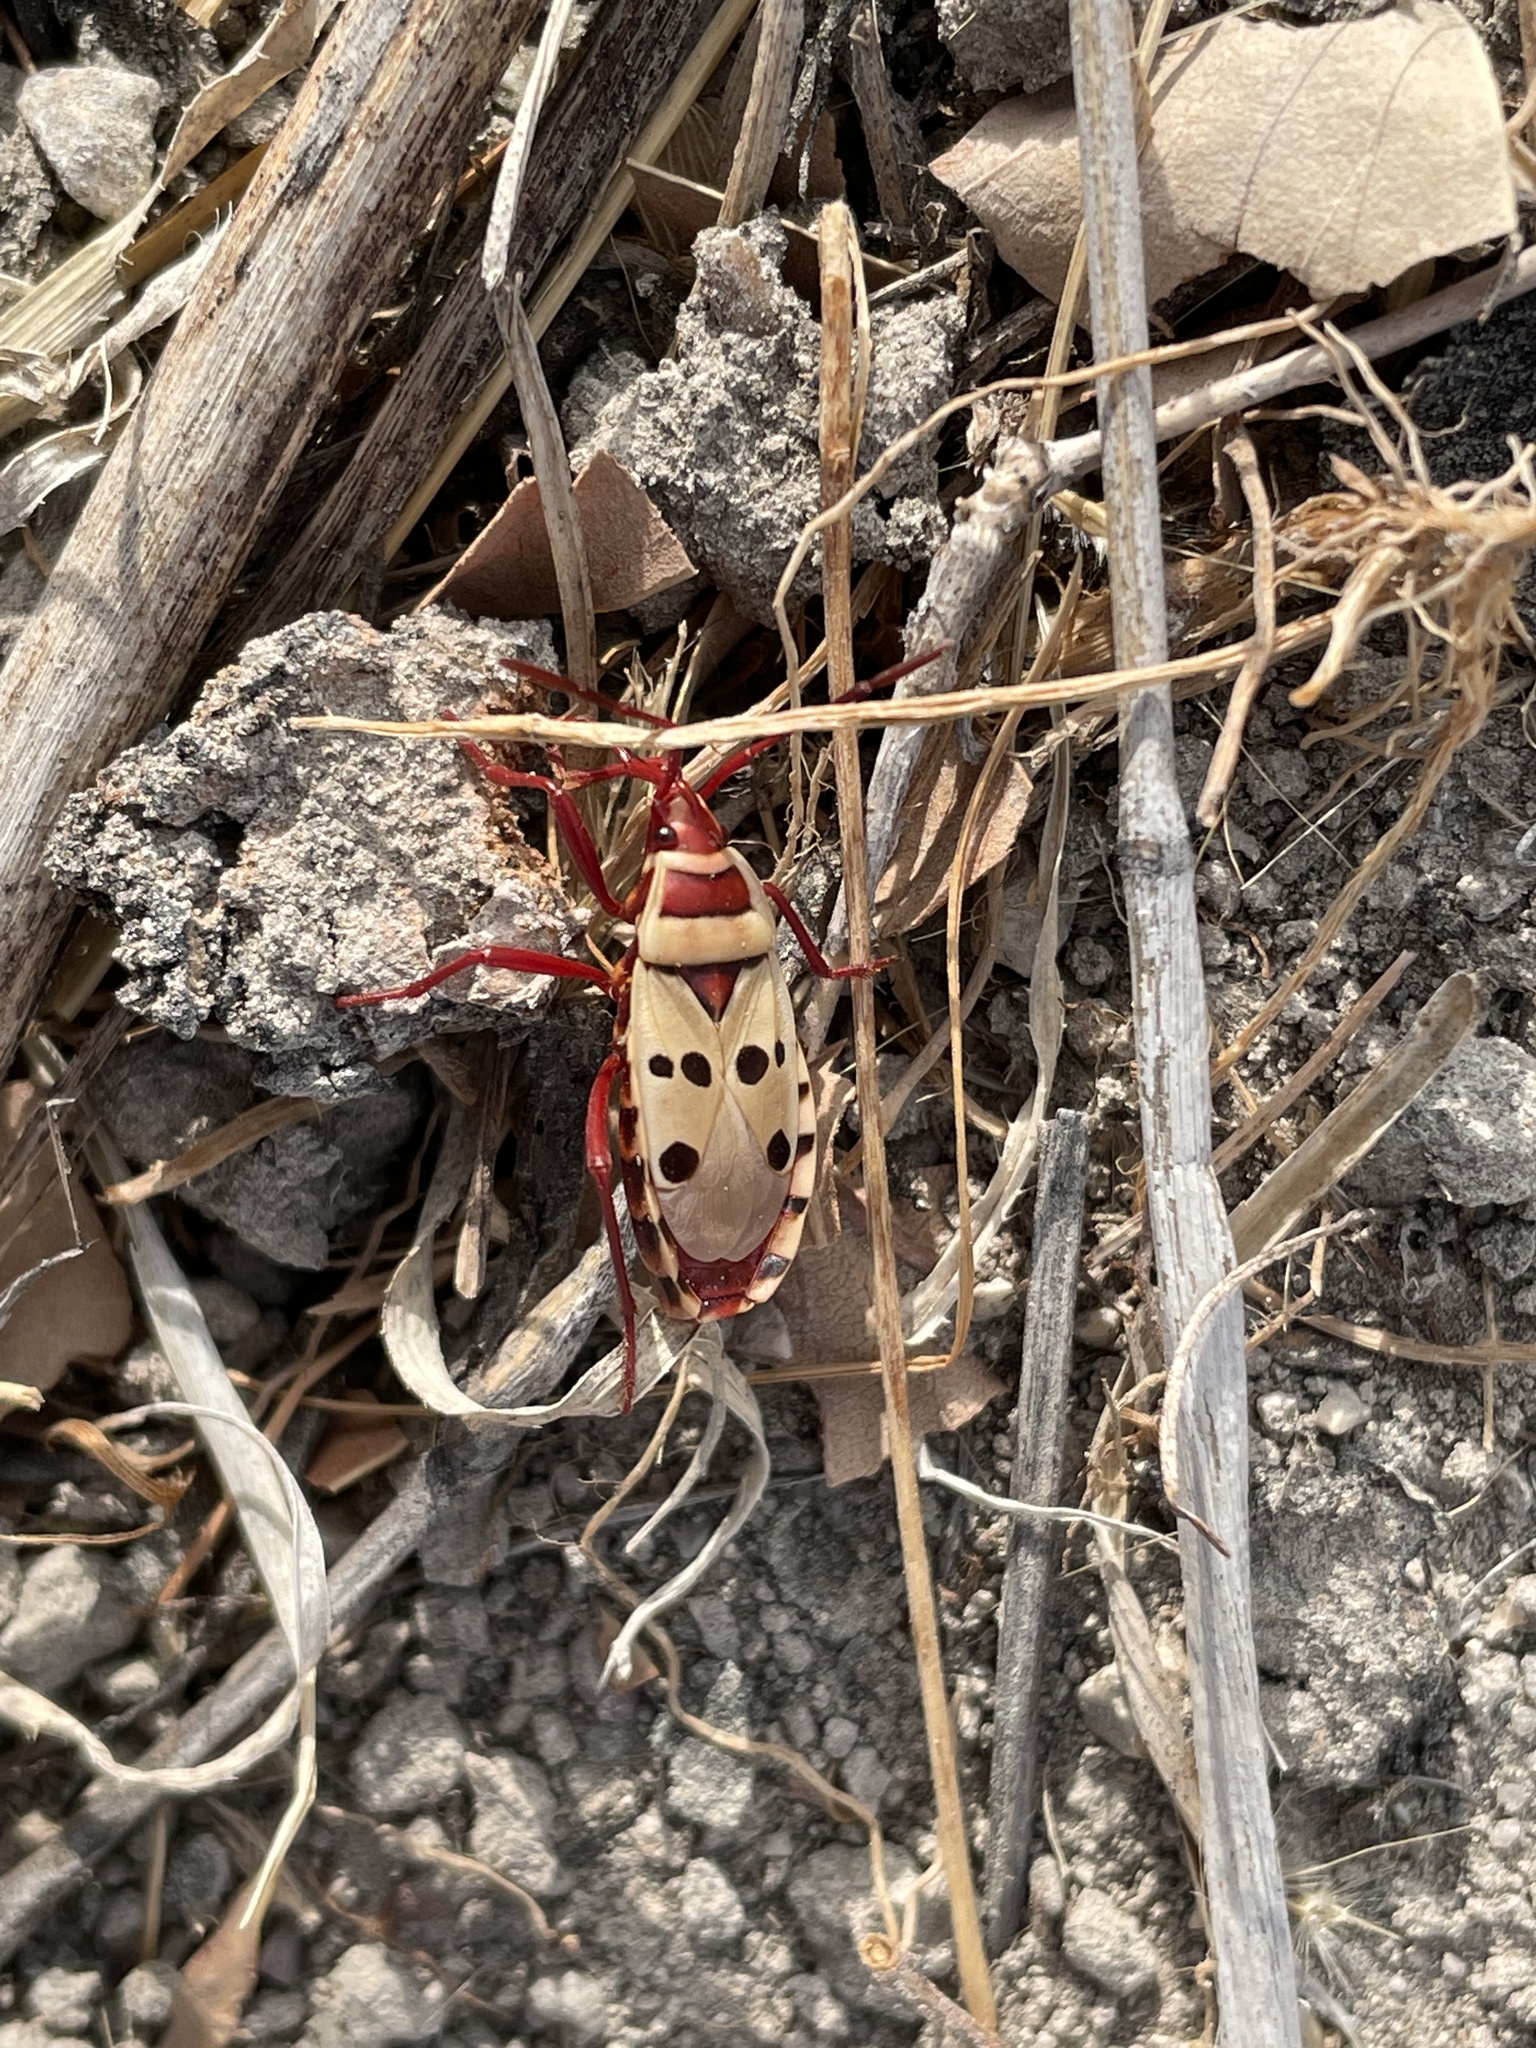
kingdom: Animalia
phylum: Arthropoda
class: Insecta
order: Hemiptera
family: Pyrrhocoridae
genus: Probergrothius
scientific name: Probergrothius sexpunctatus
